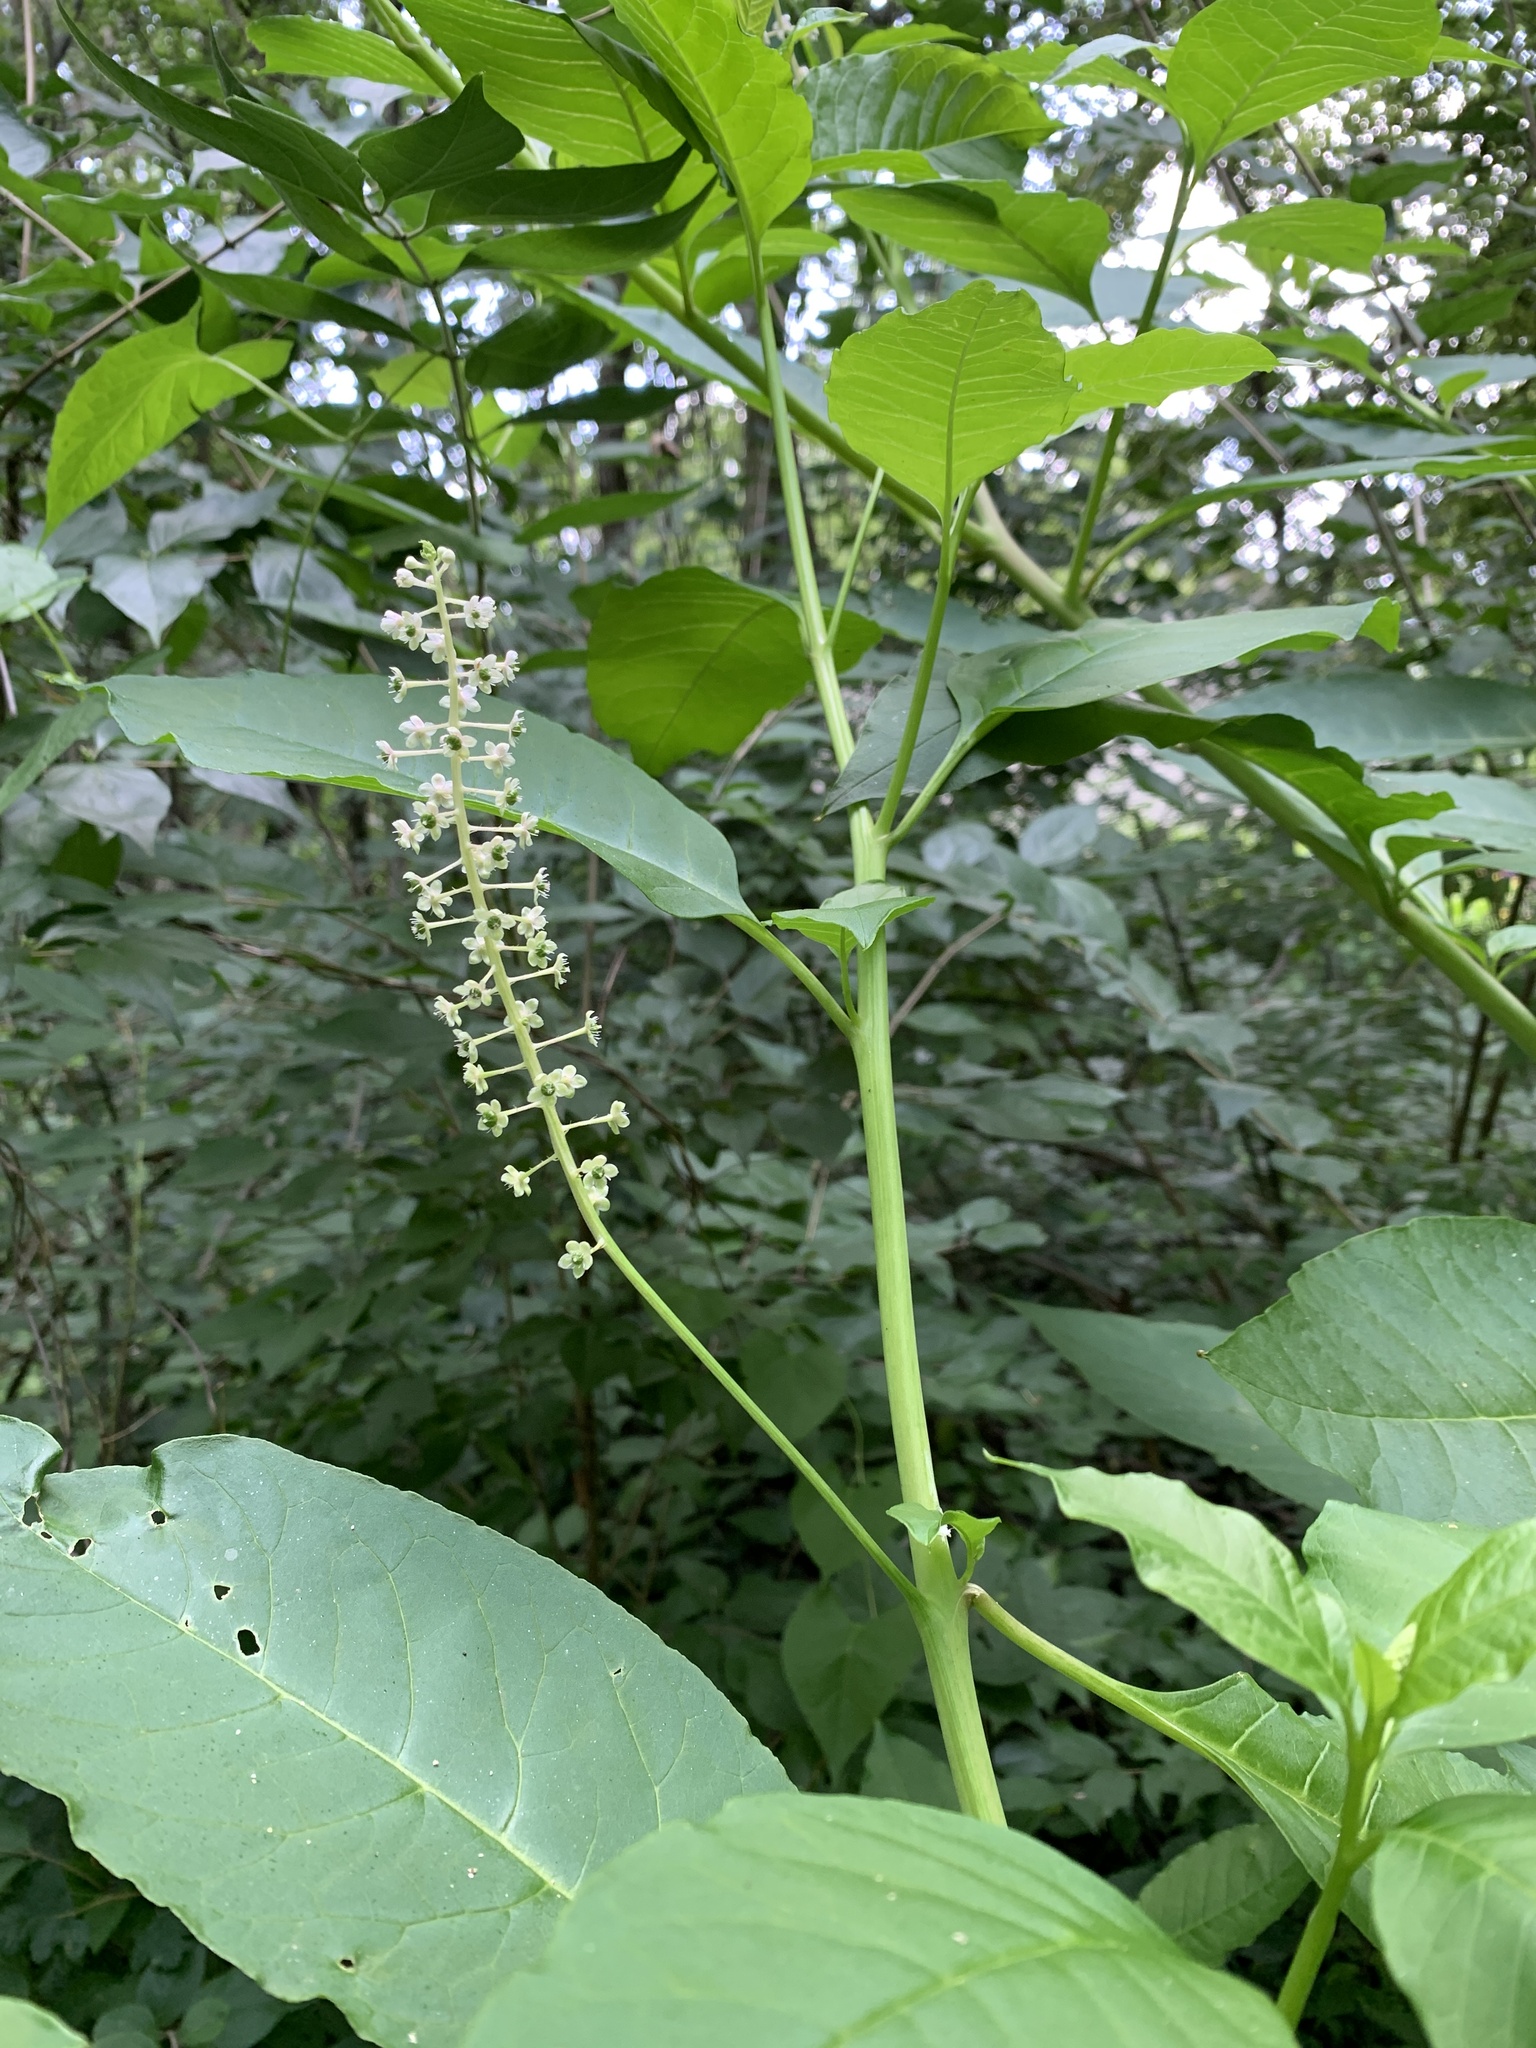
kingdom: Plantae
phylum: Tracheophyta
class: Magnoliopsida
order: Caryophyllales
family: Phytolaccaceae
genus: Phytolacca
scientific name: Phytolacca americana
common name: American pokeweed
